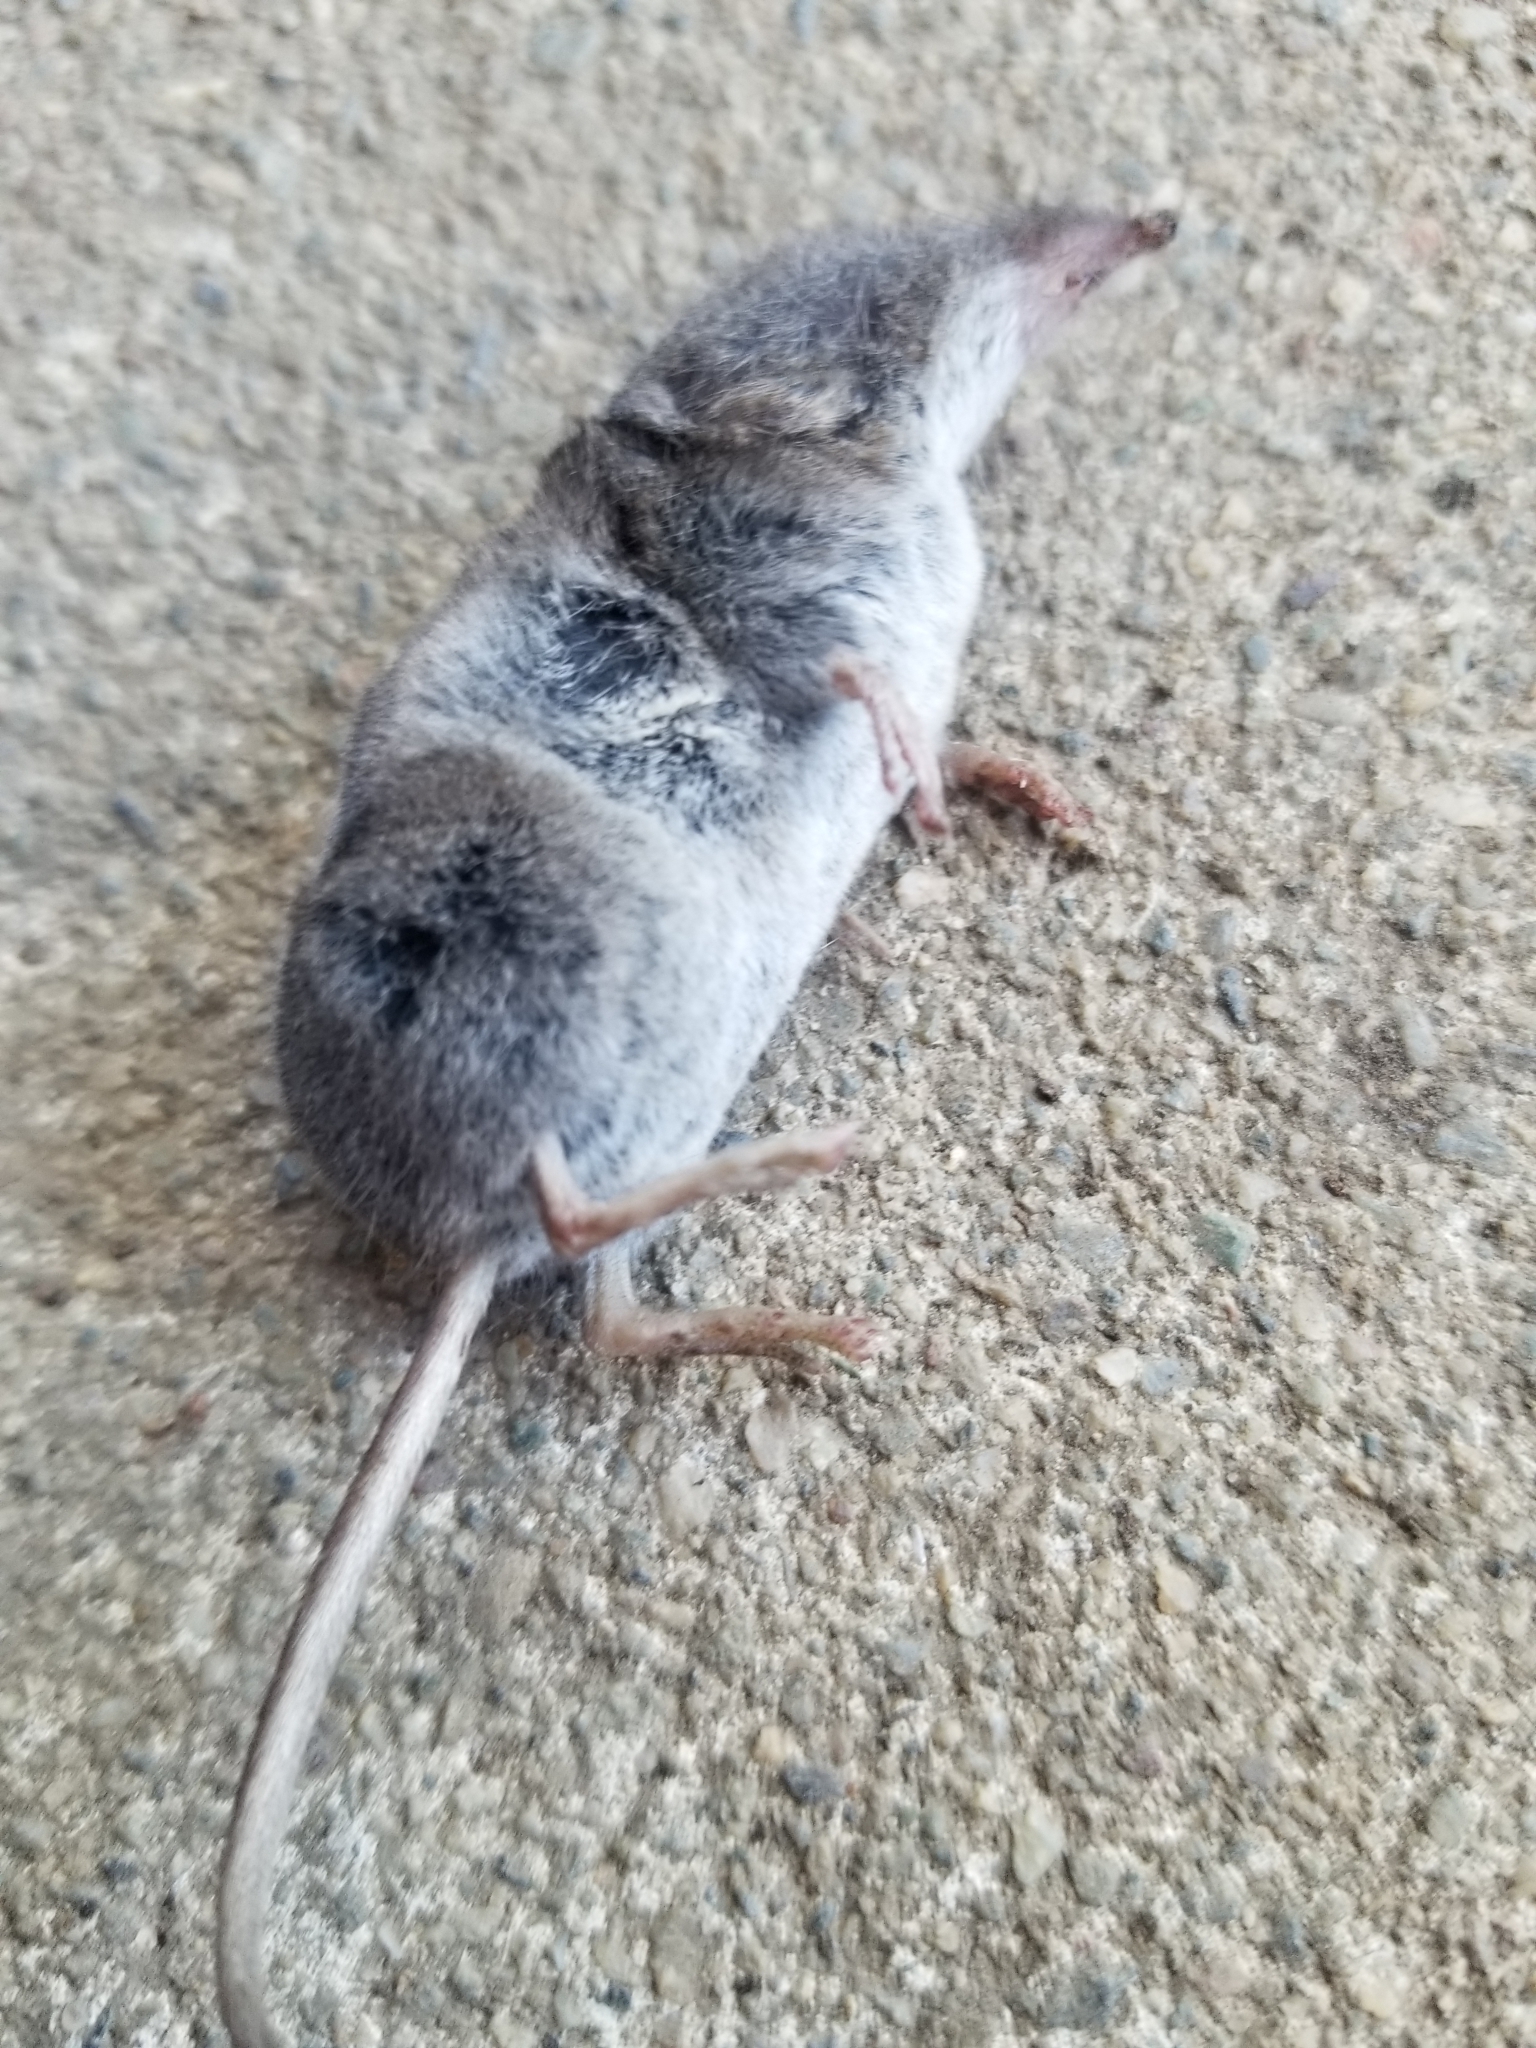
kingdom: Animalia
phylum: Chordata
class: Mammalia
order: Soricomorpha
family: Soricidae
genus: Sorex
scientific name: Sorex vagrans
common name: Vagrant shrew
